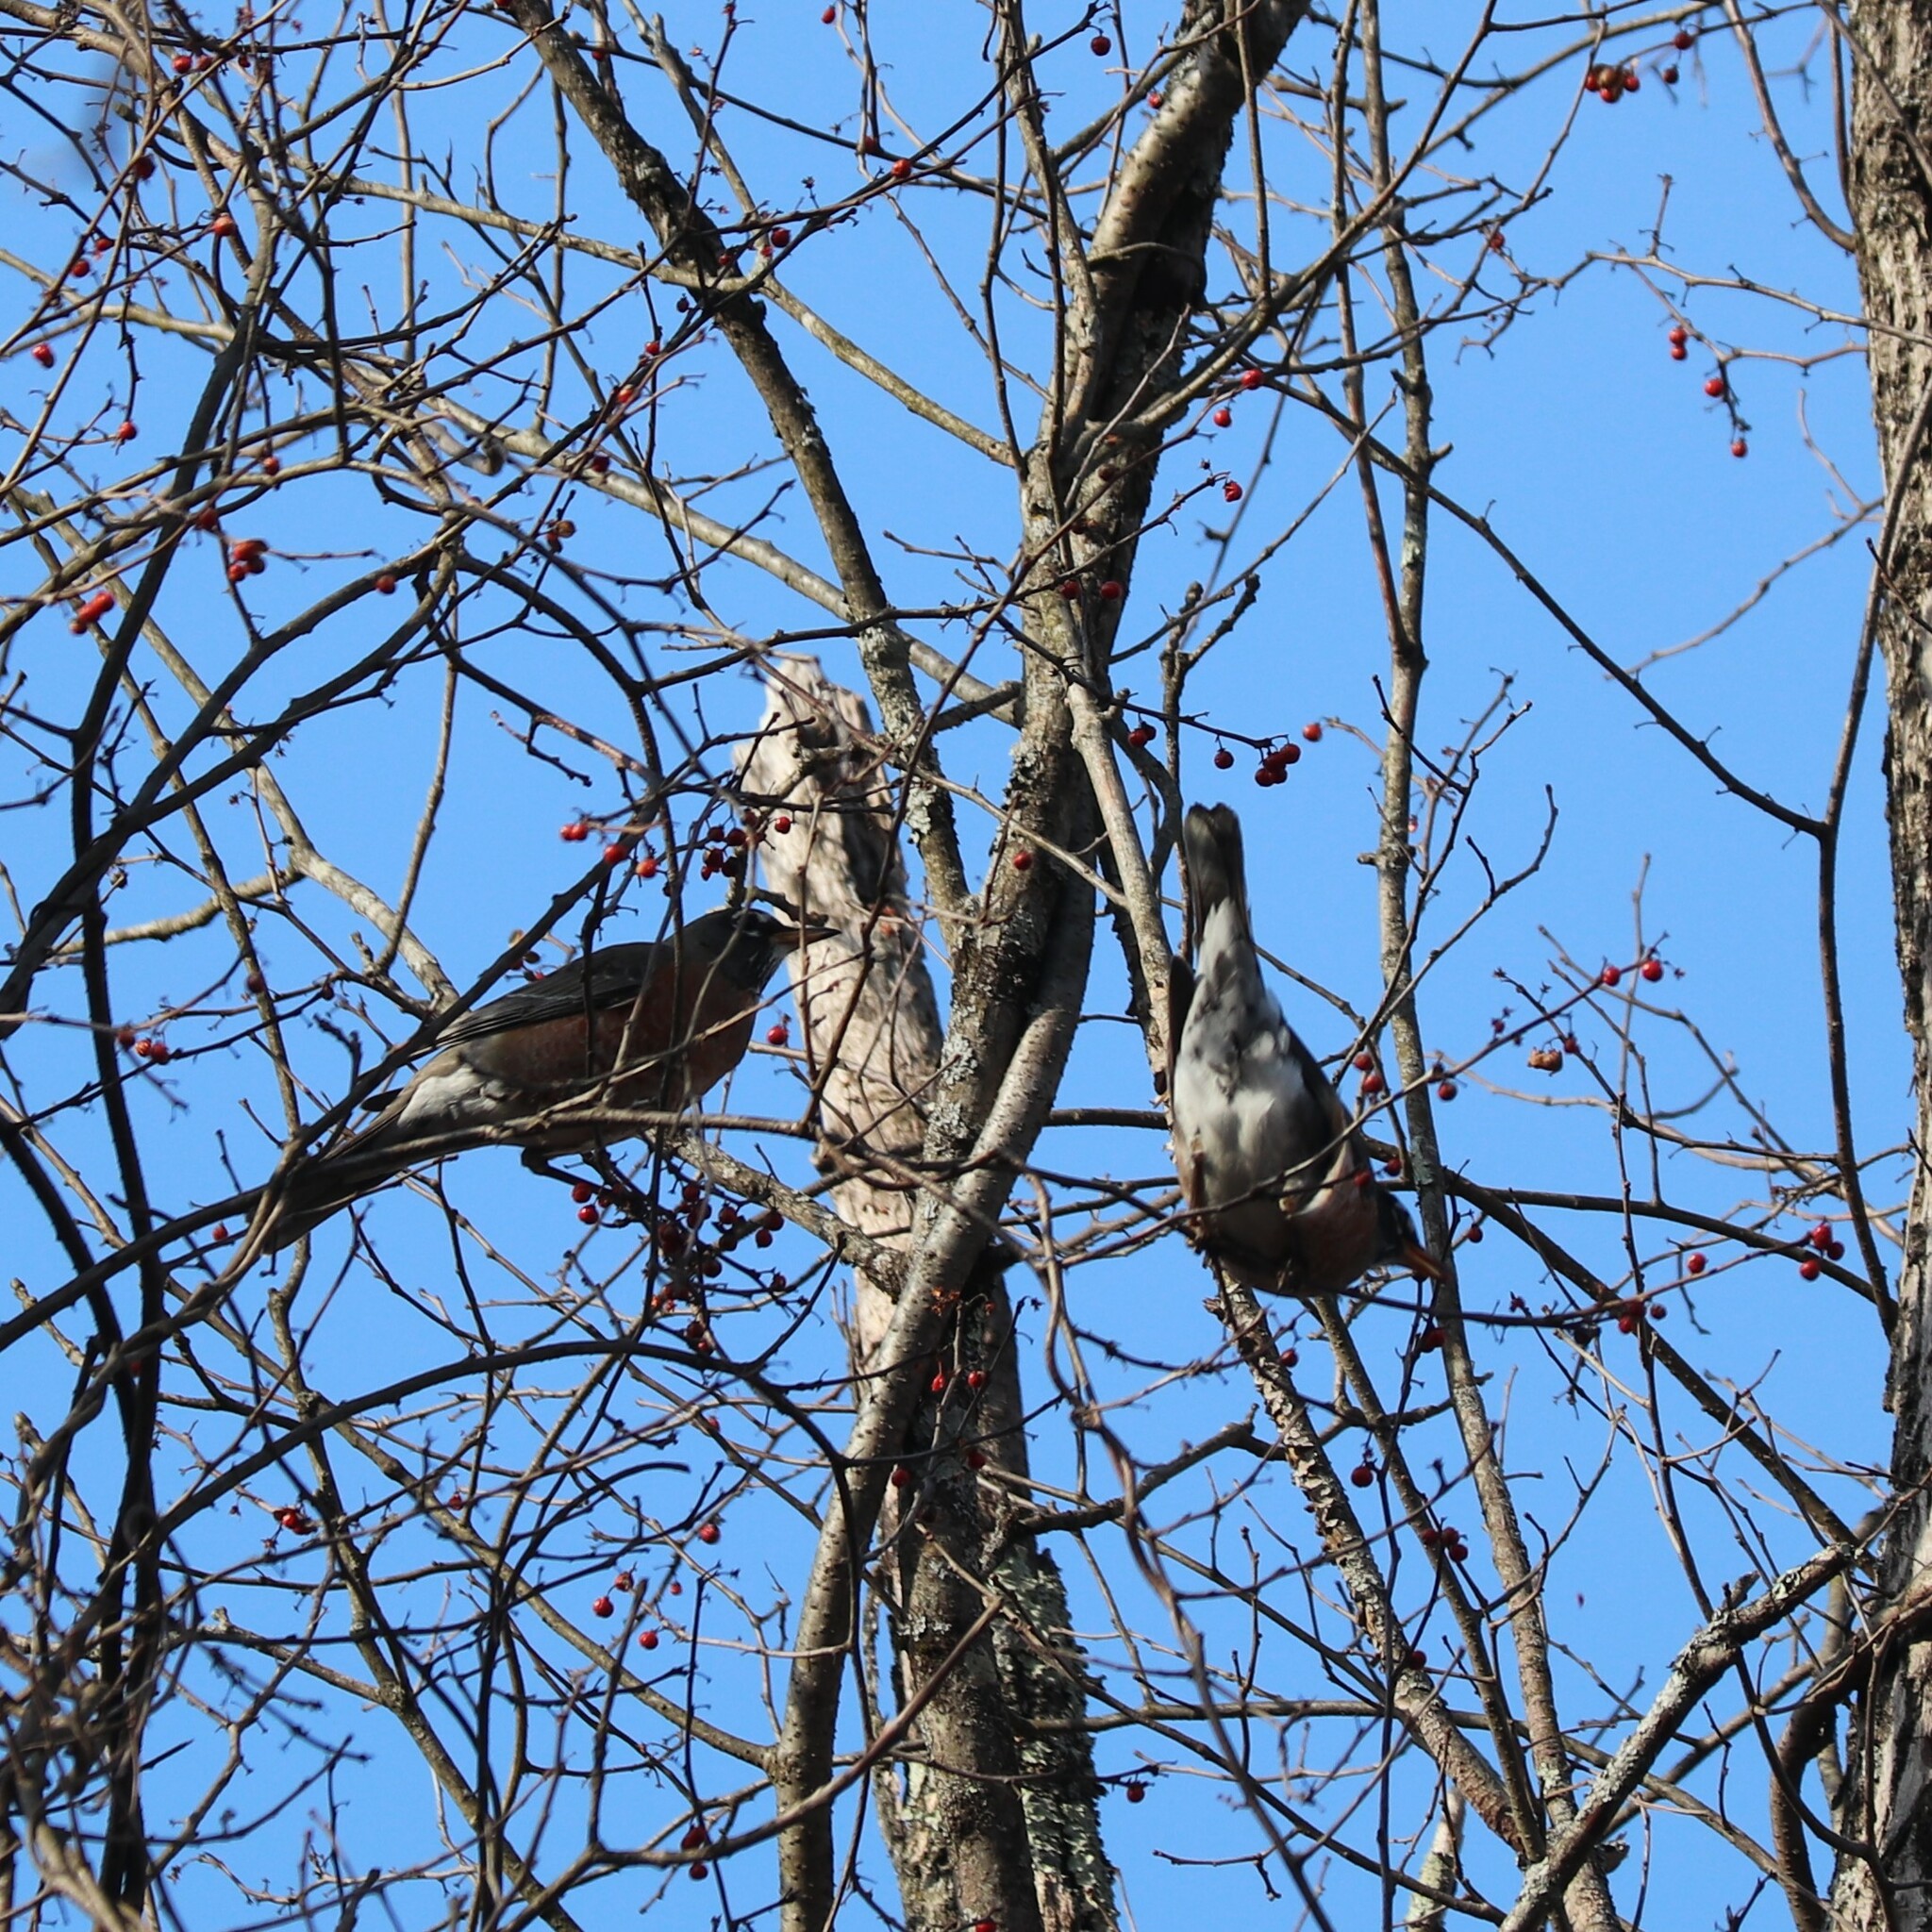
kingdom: Animalia
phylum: Chordata
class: Aves
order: Passeriformes
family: Turdidae
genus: Turdus
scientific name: Turdus migratorius
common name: American robin
